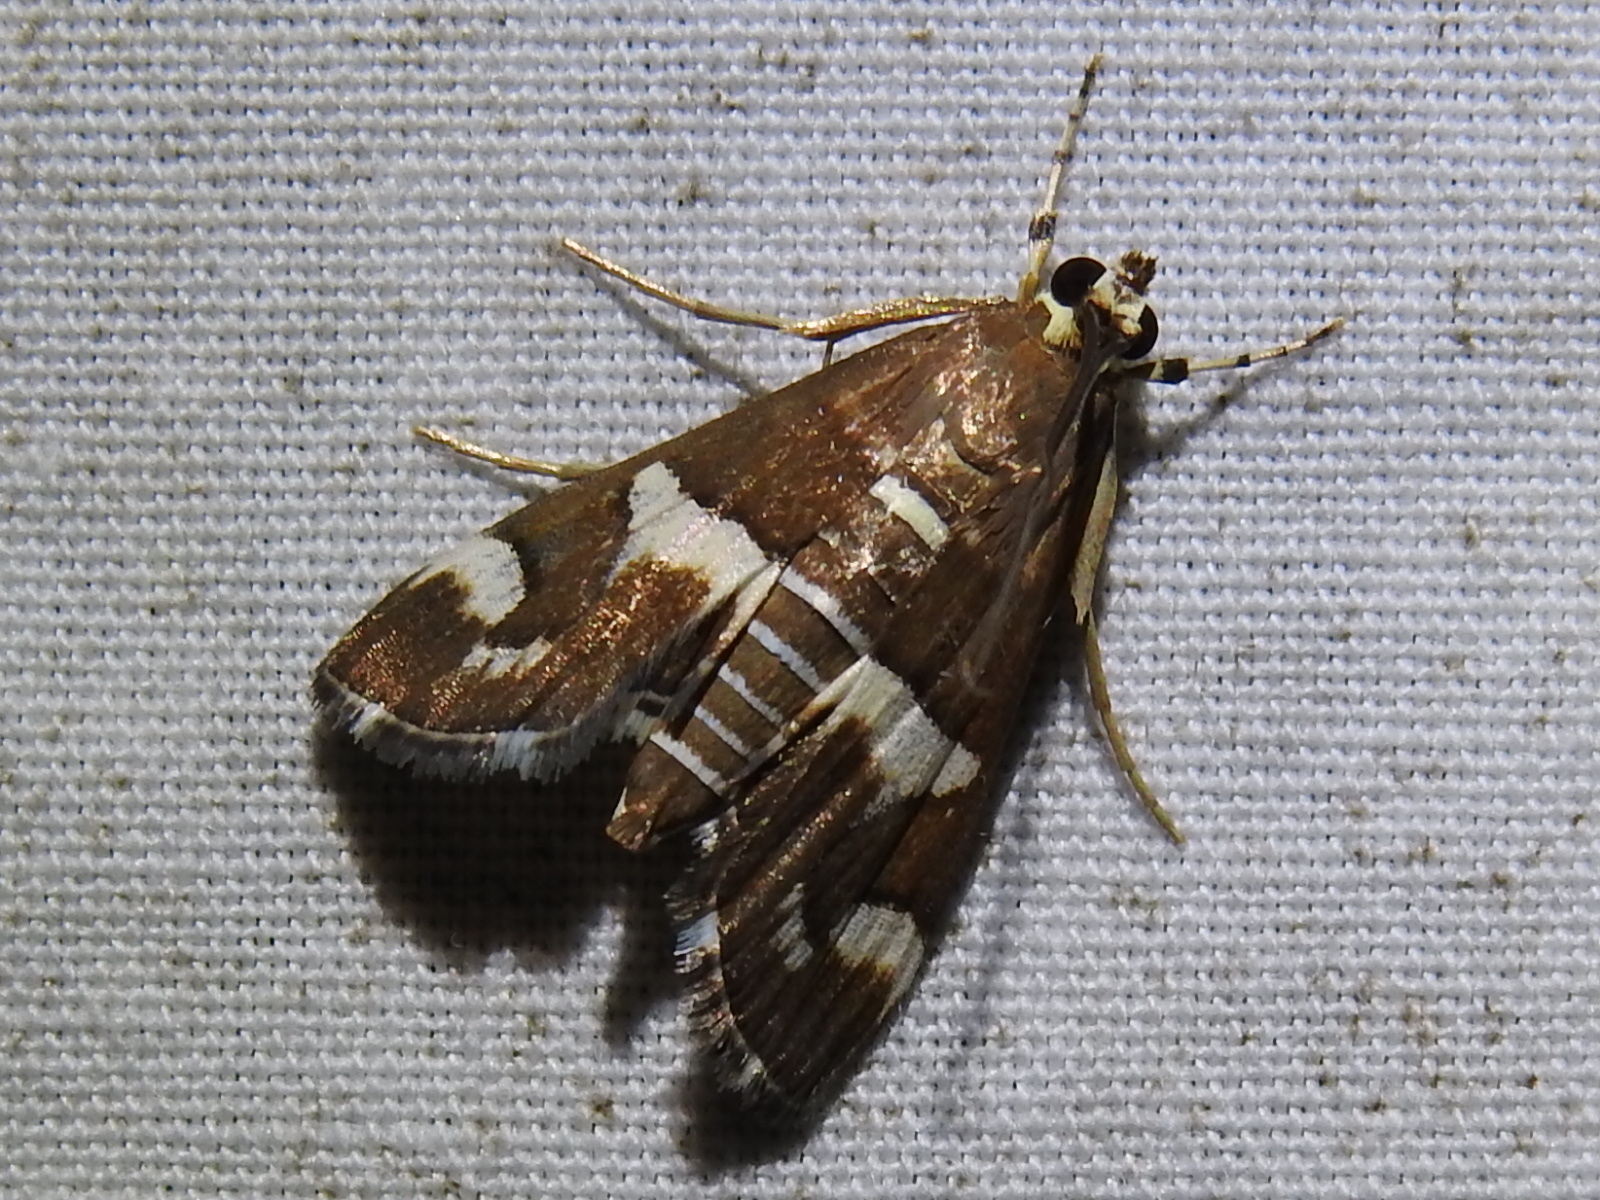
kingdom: Animalia
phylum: Arthropoda
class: Insecta
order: Lepidoptera
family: Crambidae
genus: Spoladea
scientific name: Spoladea recurvalis
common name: Beet webworm moth
